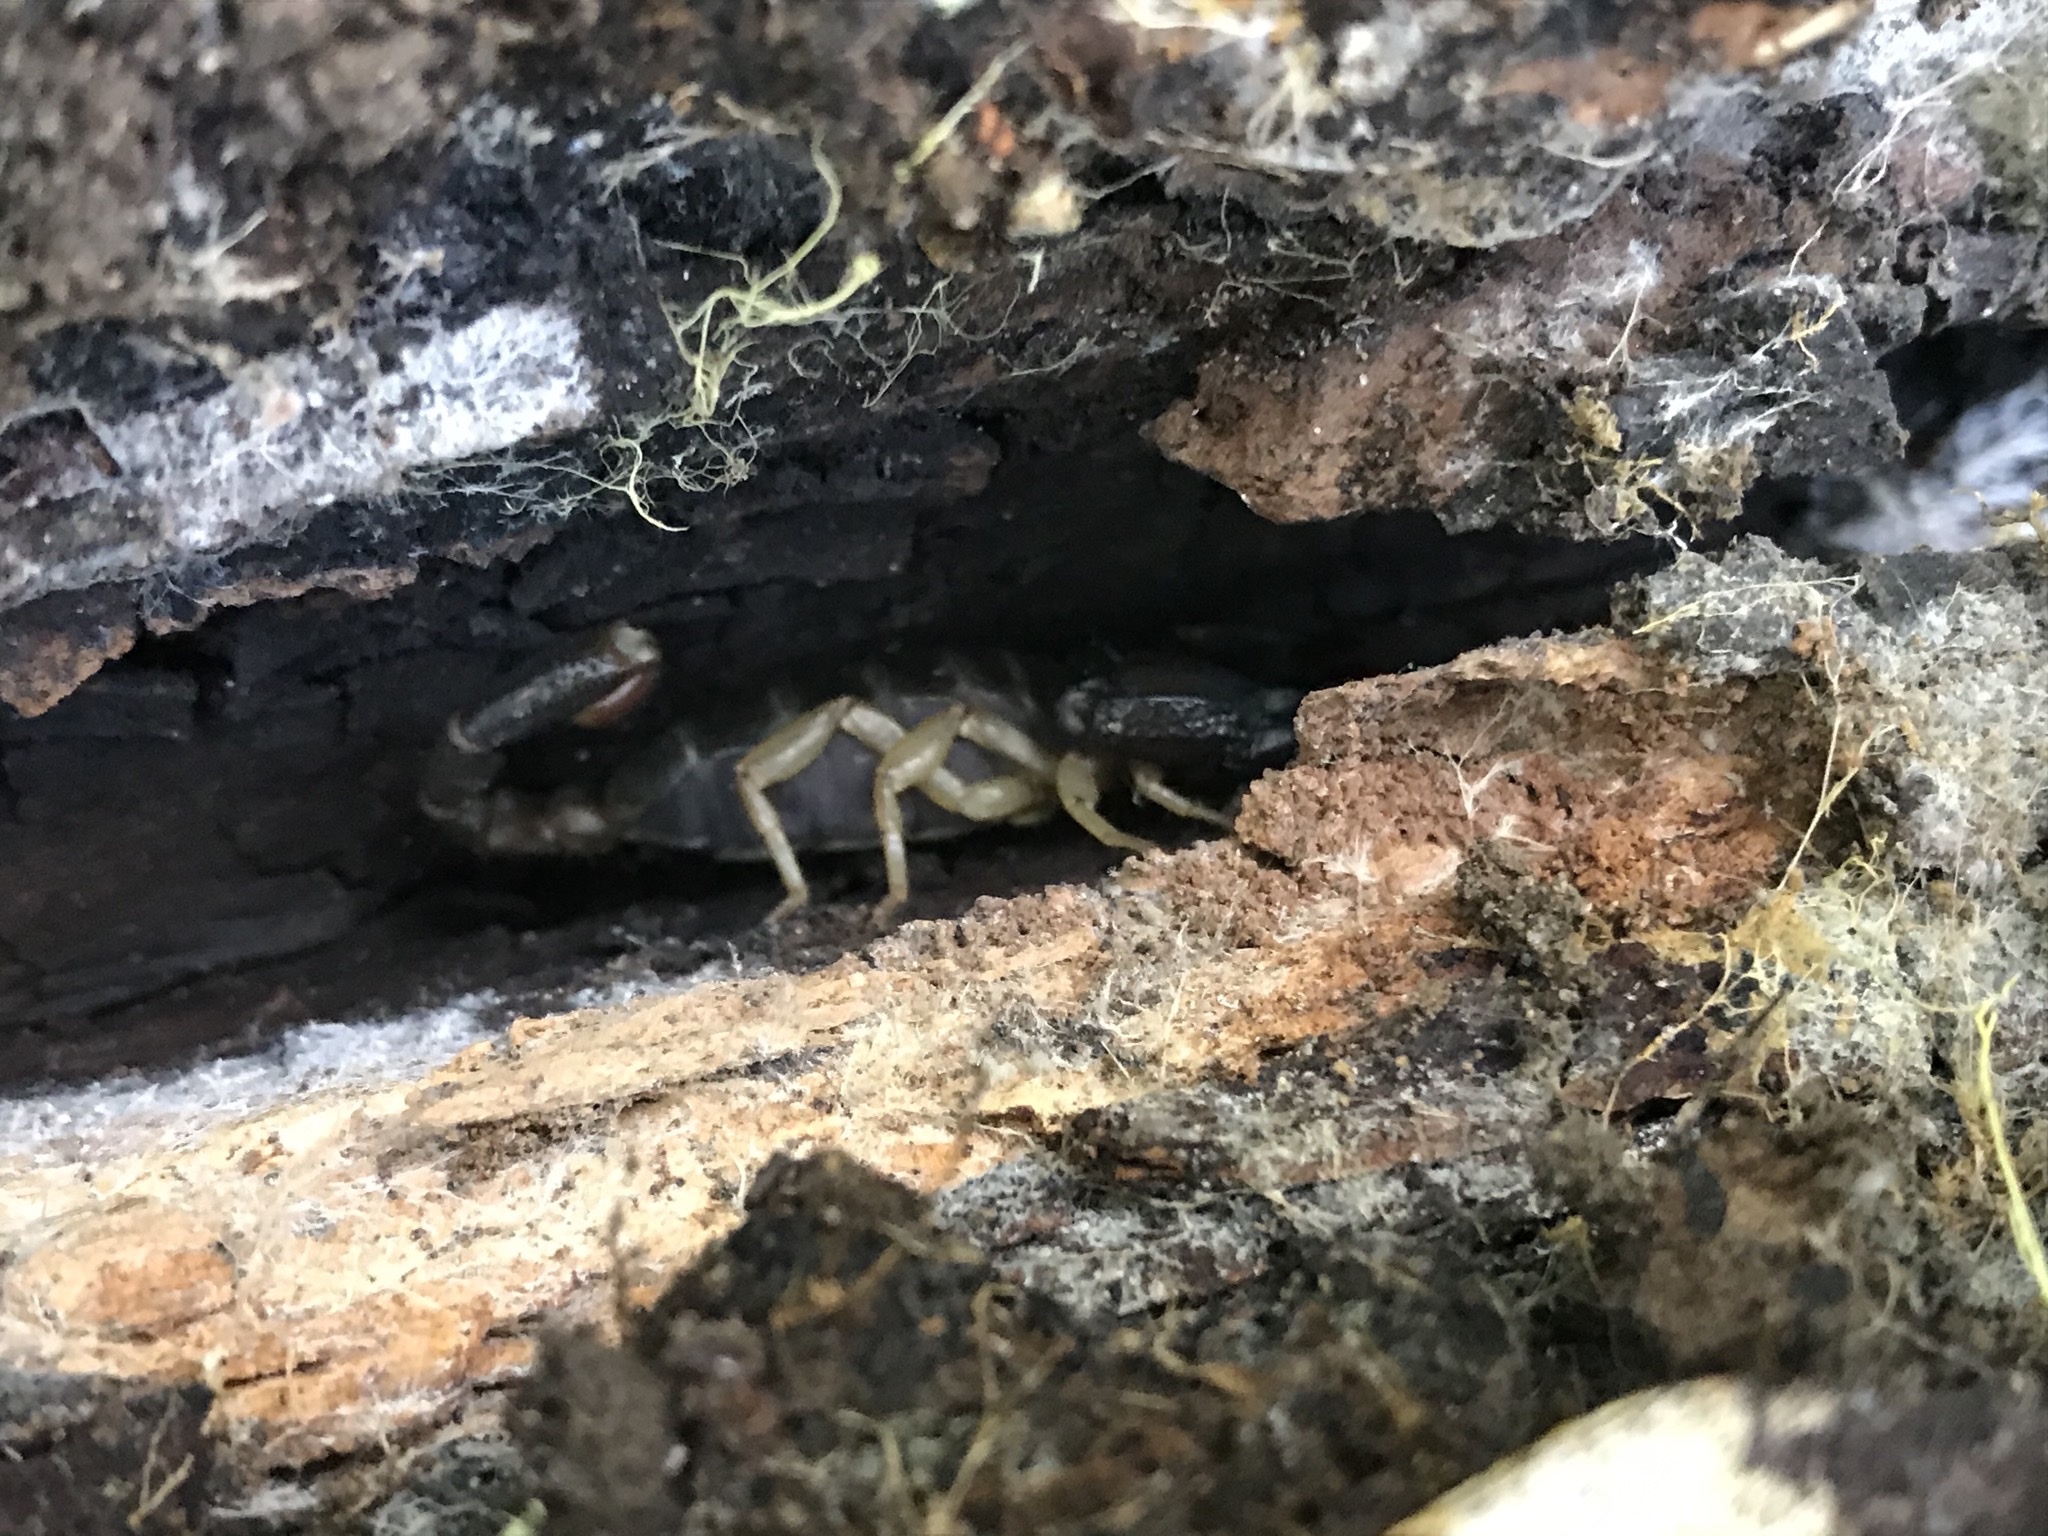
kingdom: Animalia
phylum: Arthropoda
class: Arachnida
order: Scorpiones
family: Chactidae
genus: Uroctonus
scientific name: Uroctonus mordax
